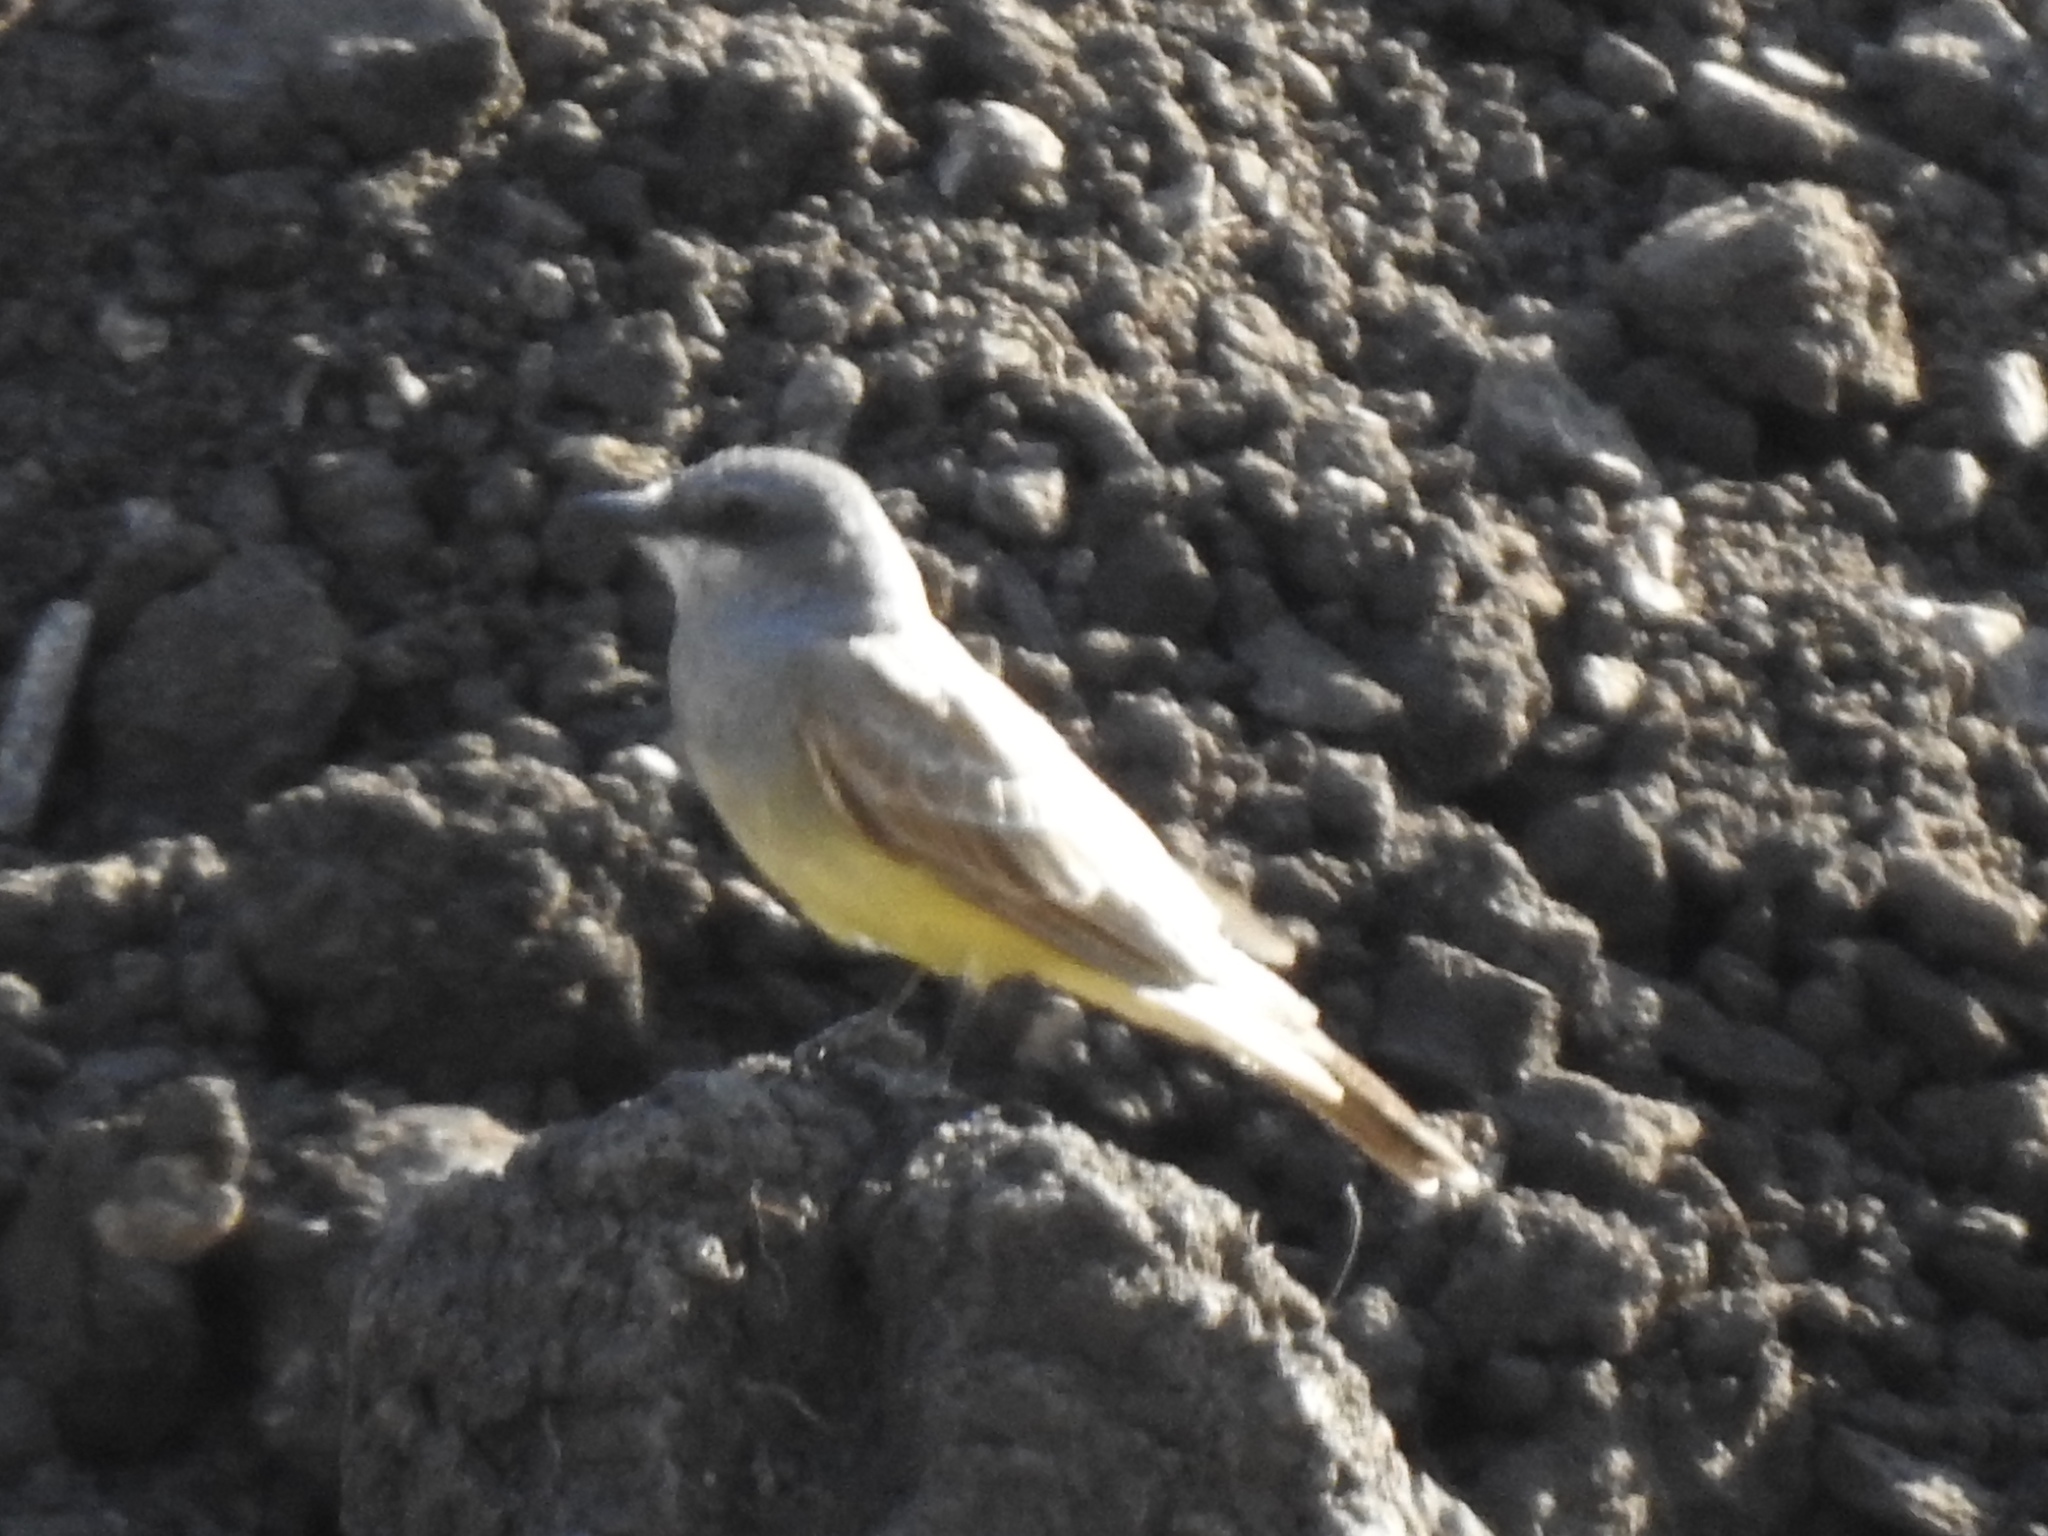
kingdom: Animalia
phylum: Chordata
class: Aves
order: Passeriformes
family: Tyrannidae
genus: Tyrannus
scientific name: Tyrannus vociferans
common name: Cassin's kingbird
